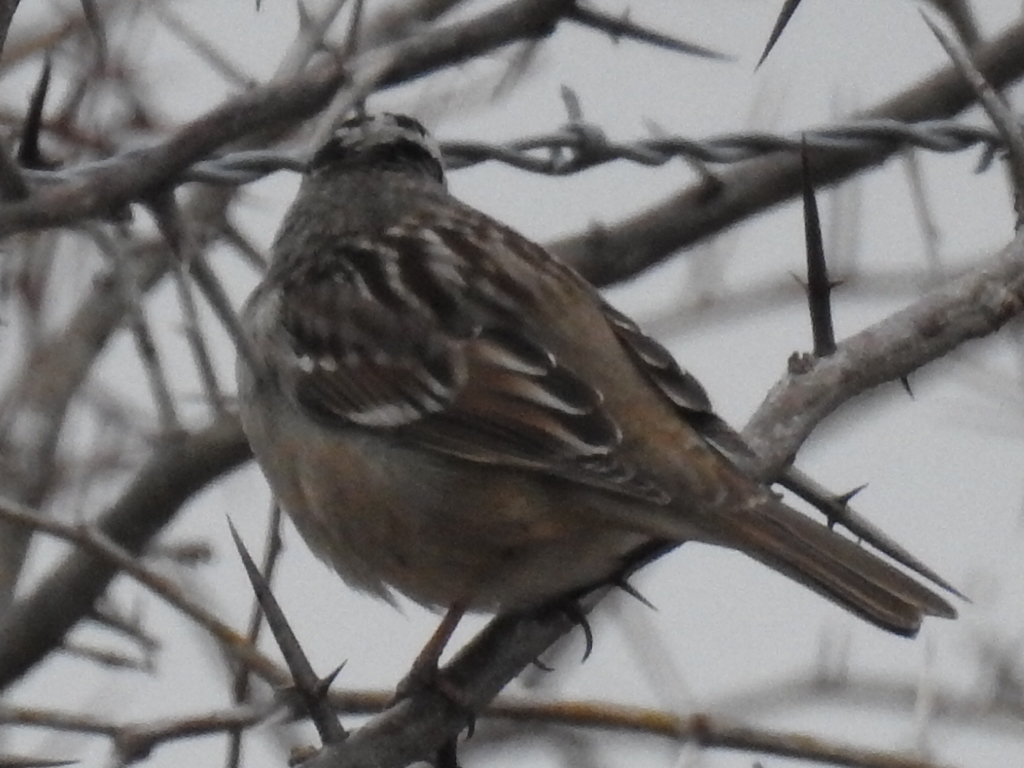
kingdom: Animalia
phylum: Chordata
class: Aves
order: Passeriformes
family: Passerellidae
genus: Zonotrichia
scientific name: Zonotrichia leucophrys
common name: White-crowned sparrow
